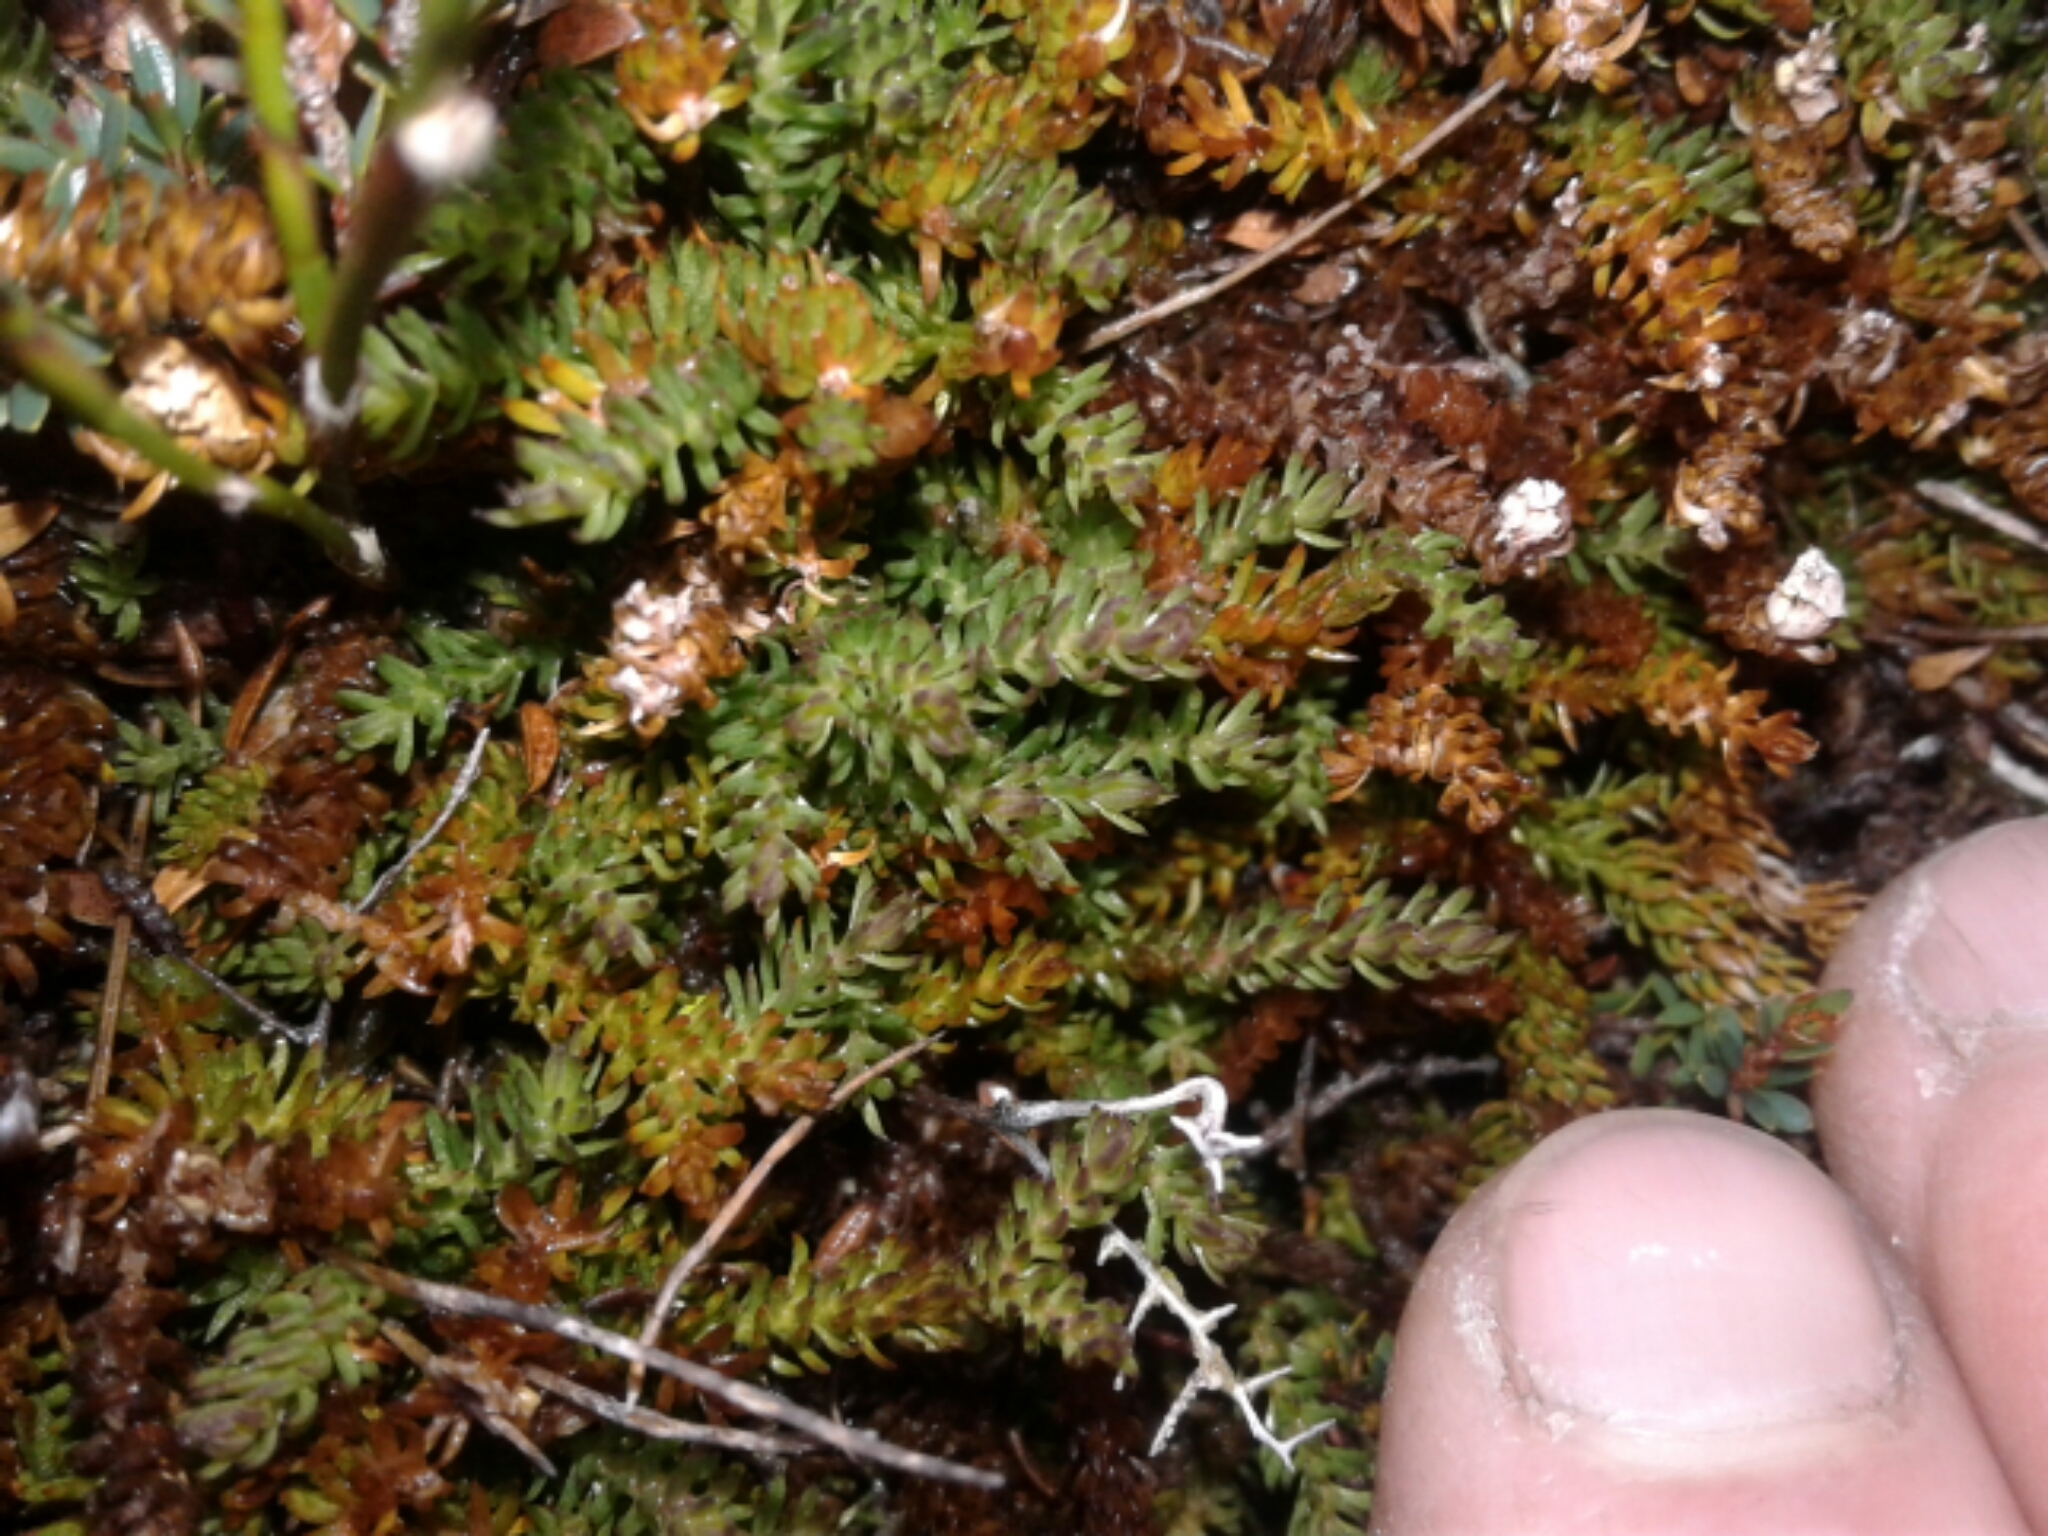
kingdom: Plantae
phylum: Tracheophyta
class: Lycopodiopsida
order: Lycopodiales
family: Lycopodiaceae
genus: Lateristachys
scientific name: Lateristachys diffusa
